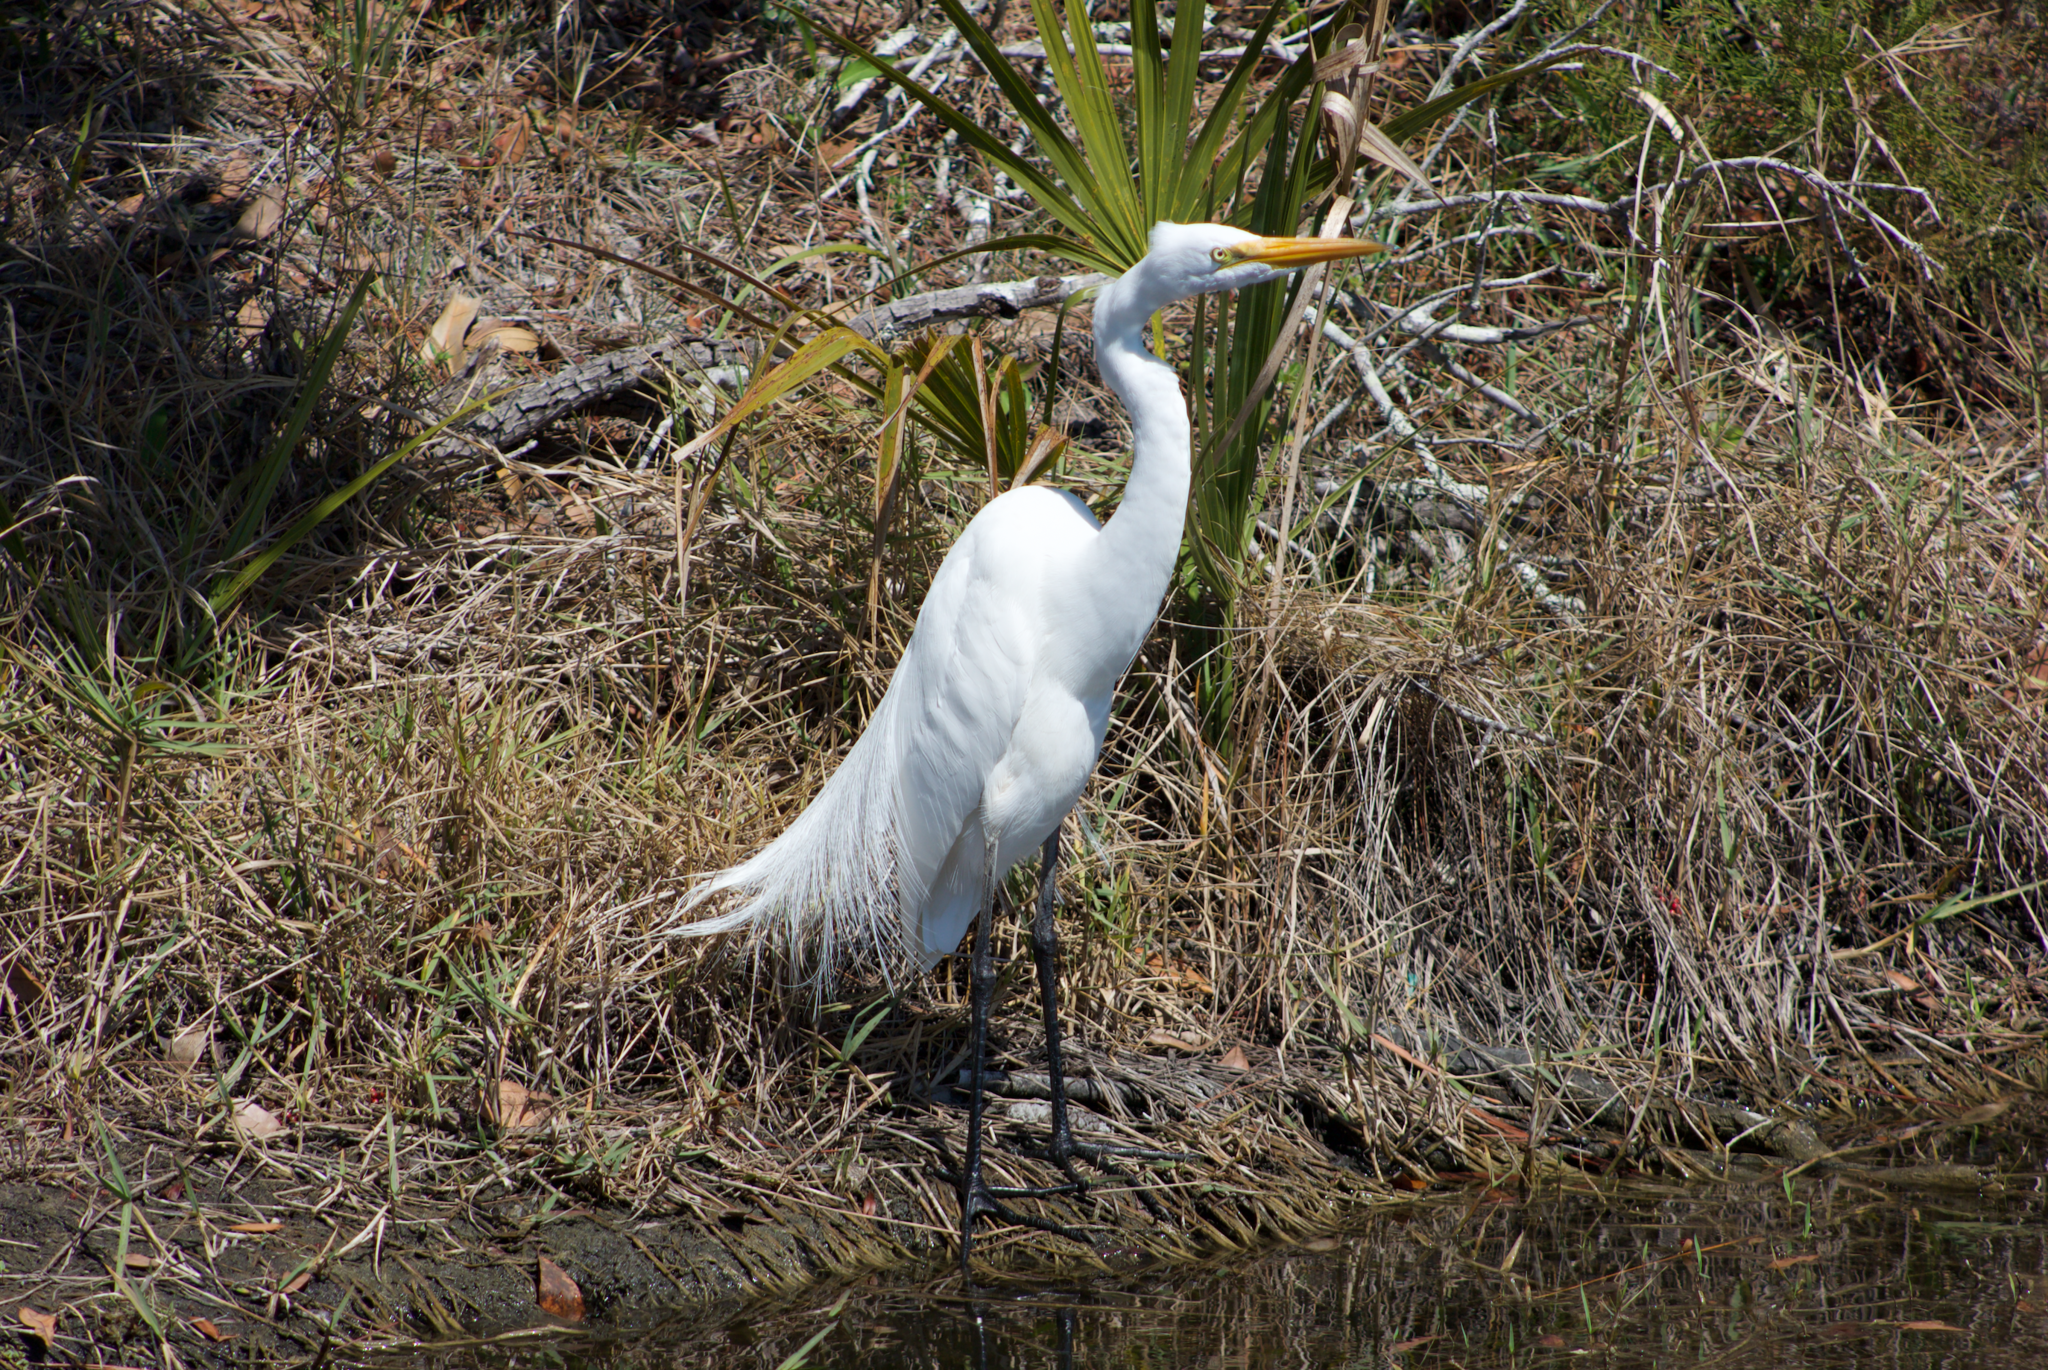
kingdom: Animalia
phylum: Chordata
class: Aves
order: Pelecaniformes
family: Ardeidae
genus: Ardea
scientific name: Ardea alba
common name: Great egret
